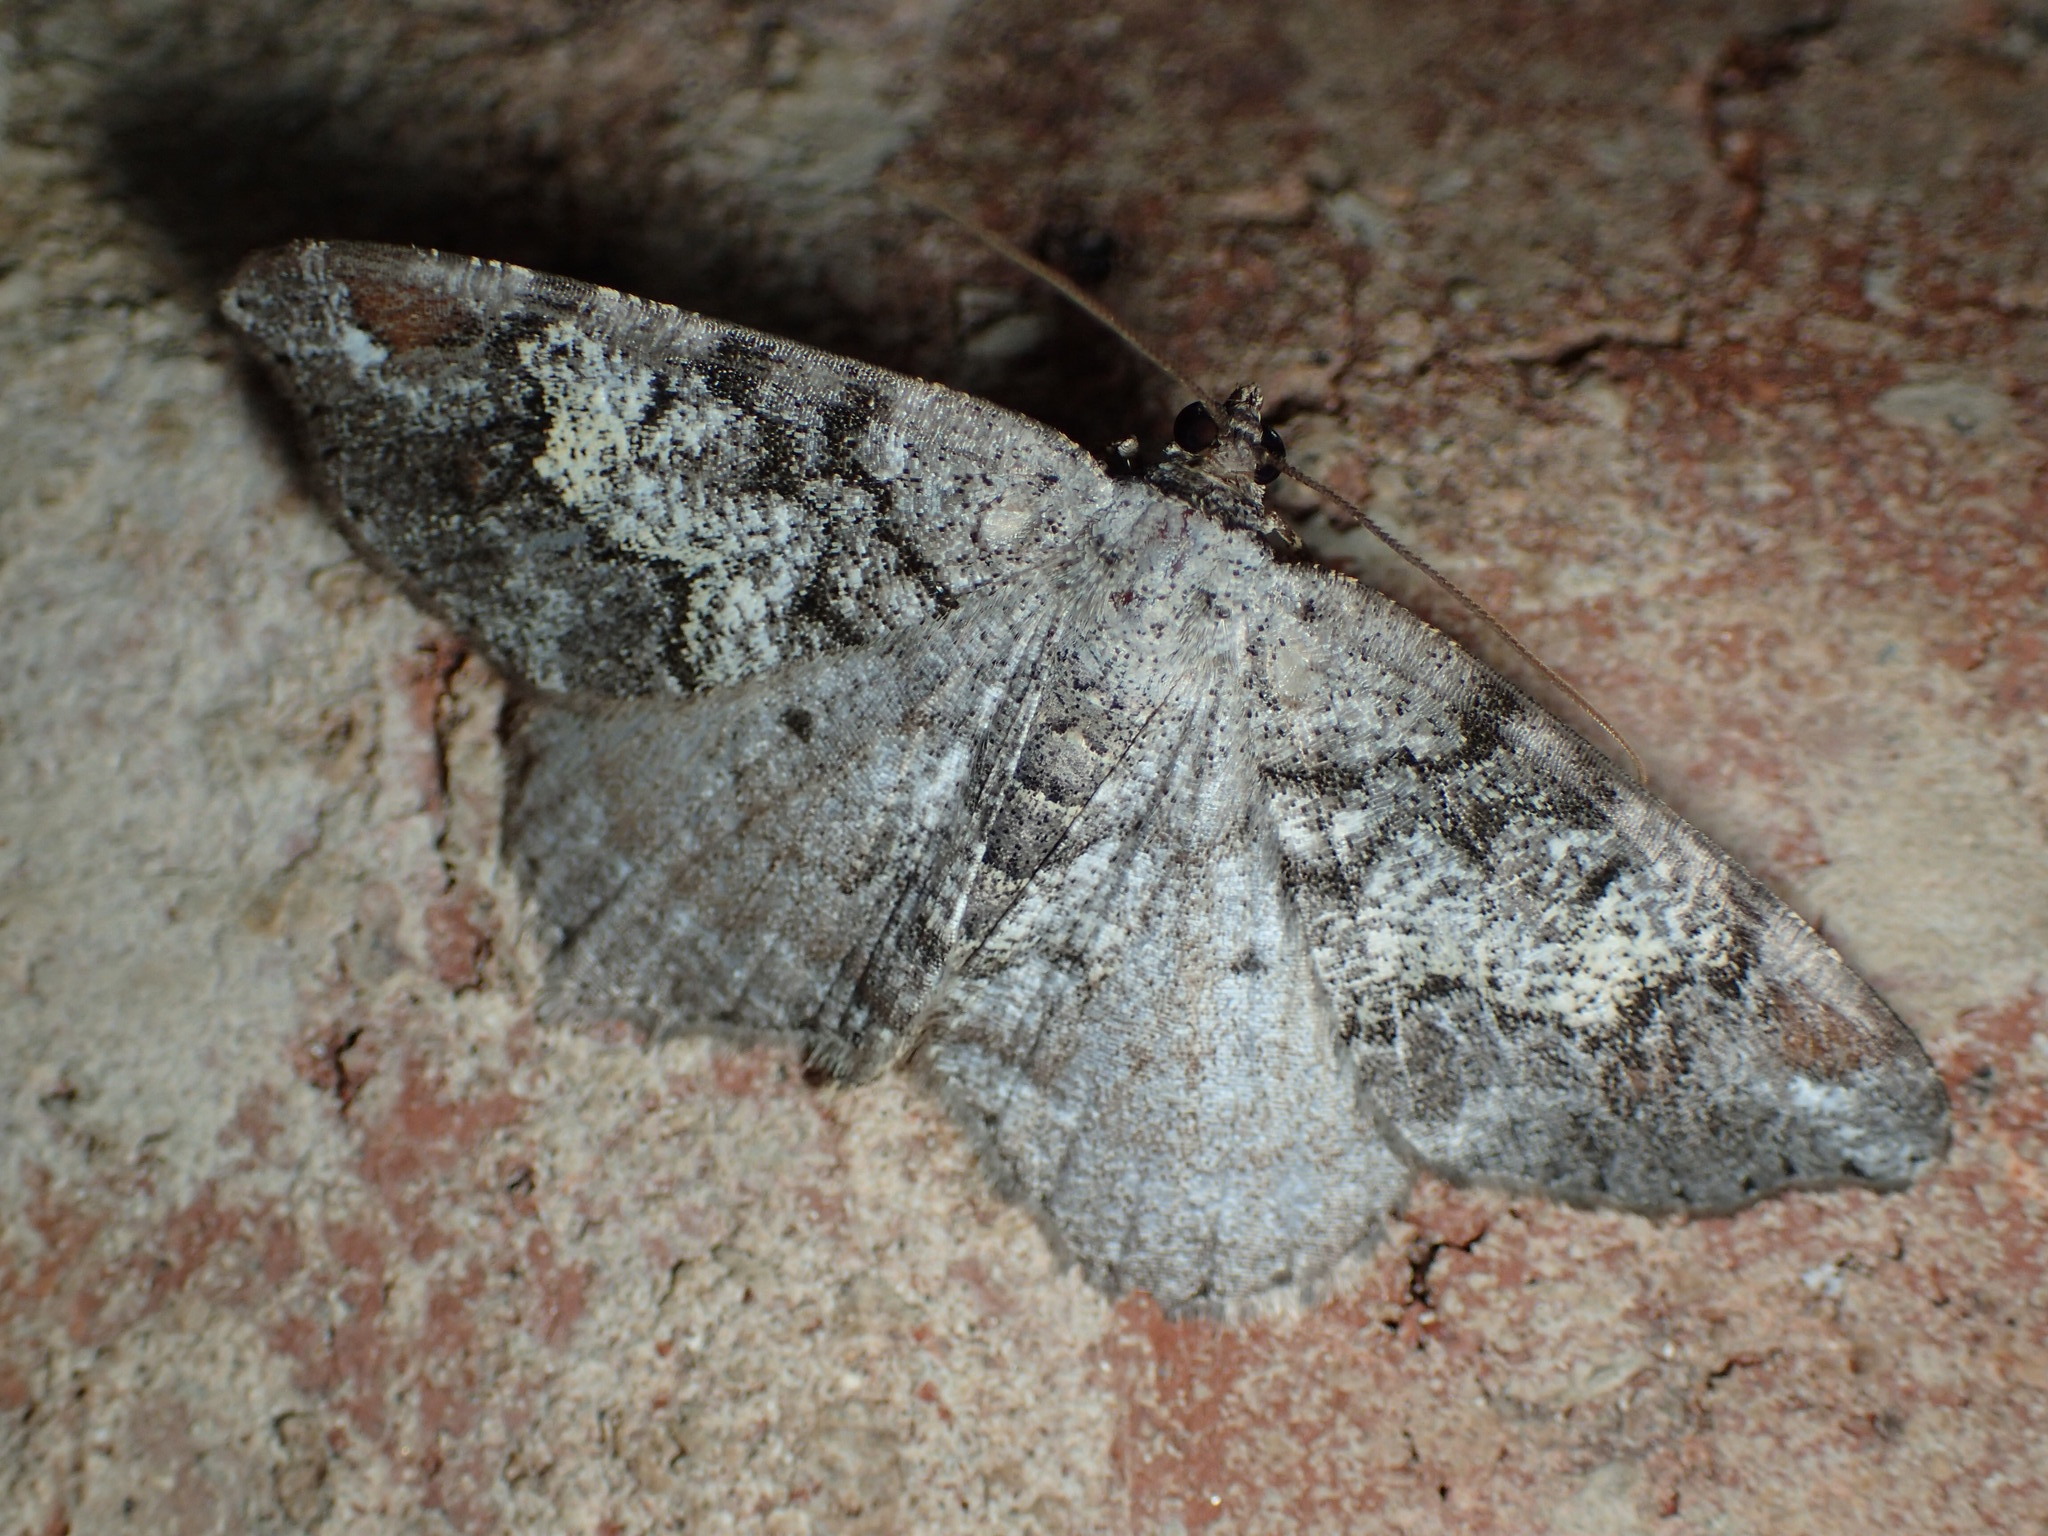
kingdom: Animalia
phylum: Arthropoda
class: Insecta
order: Lepidoptera
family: Geometridae
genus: Macaria
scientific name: Macaria granitata
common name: Granite moth
